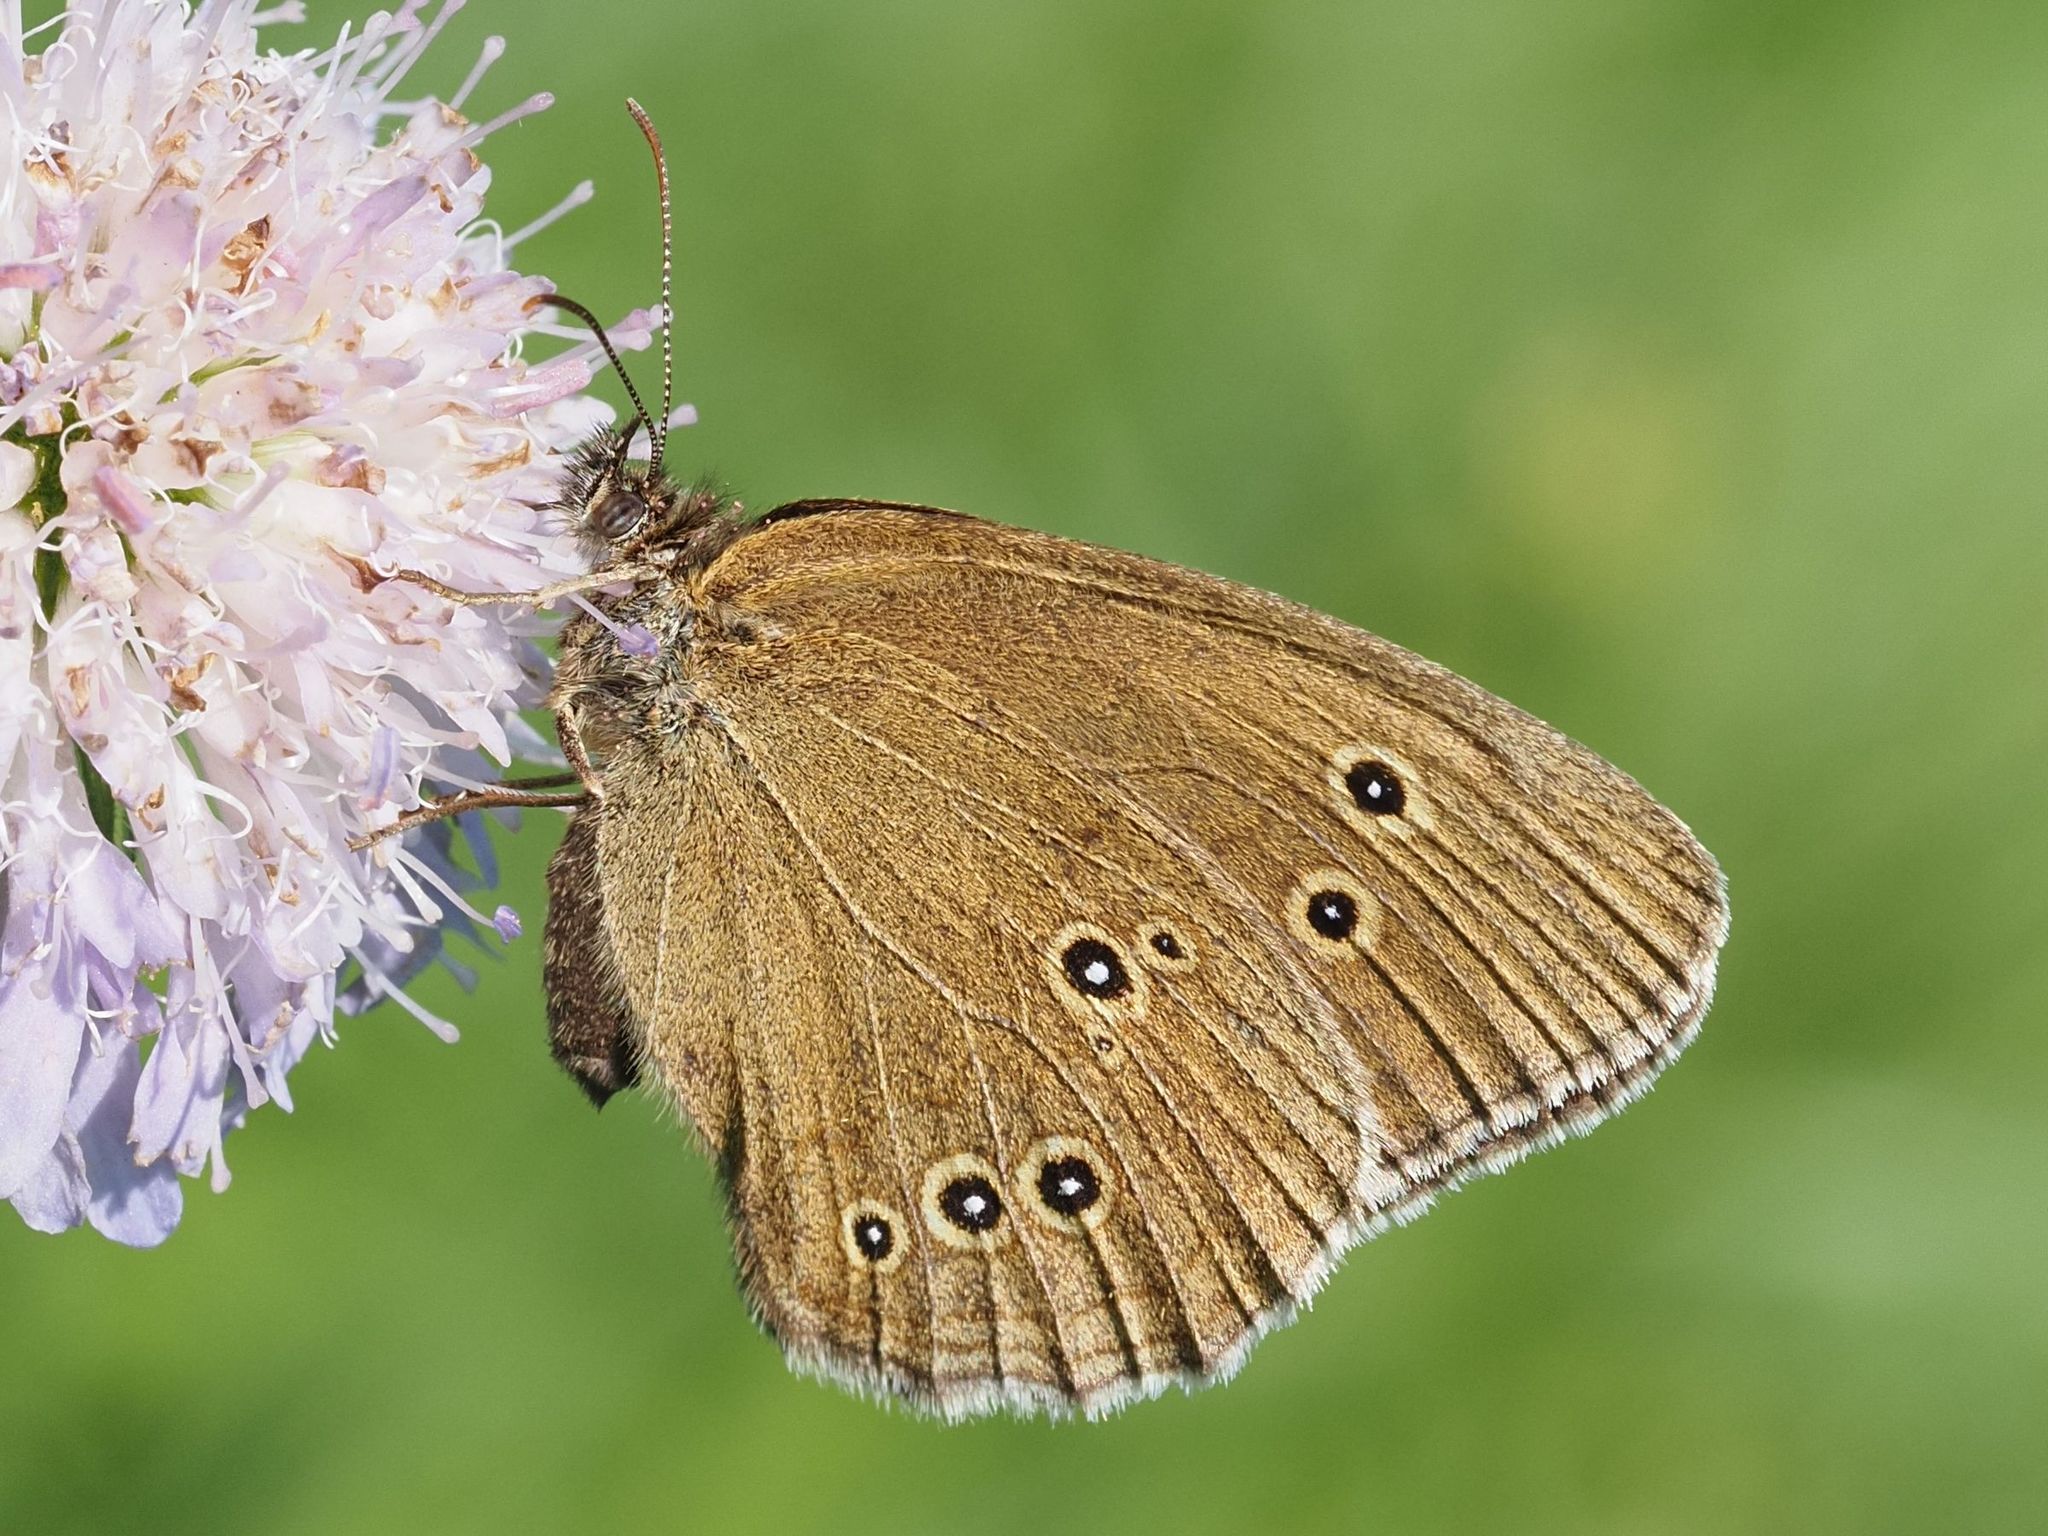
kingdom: Animalia
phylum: Arthropoda
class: Insecta
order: Lepidoptera
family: Nymphalidae
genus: Aphantopus
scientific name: Aphantopus hyperantus
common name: Ringlet
